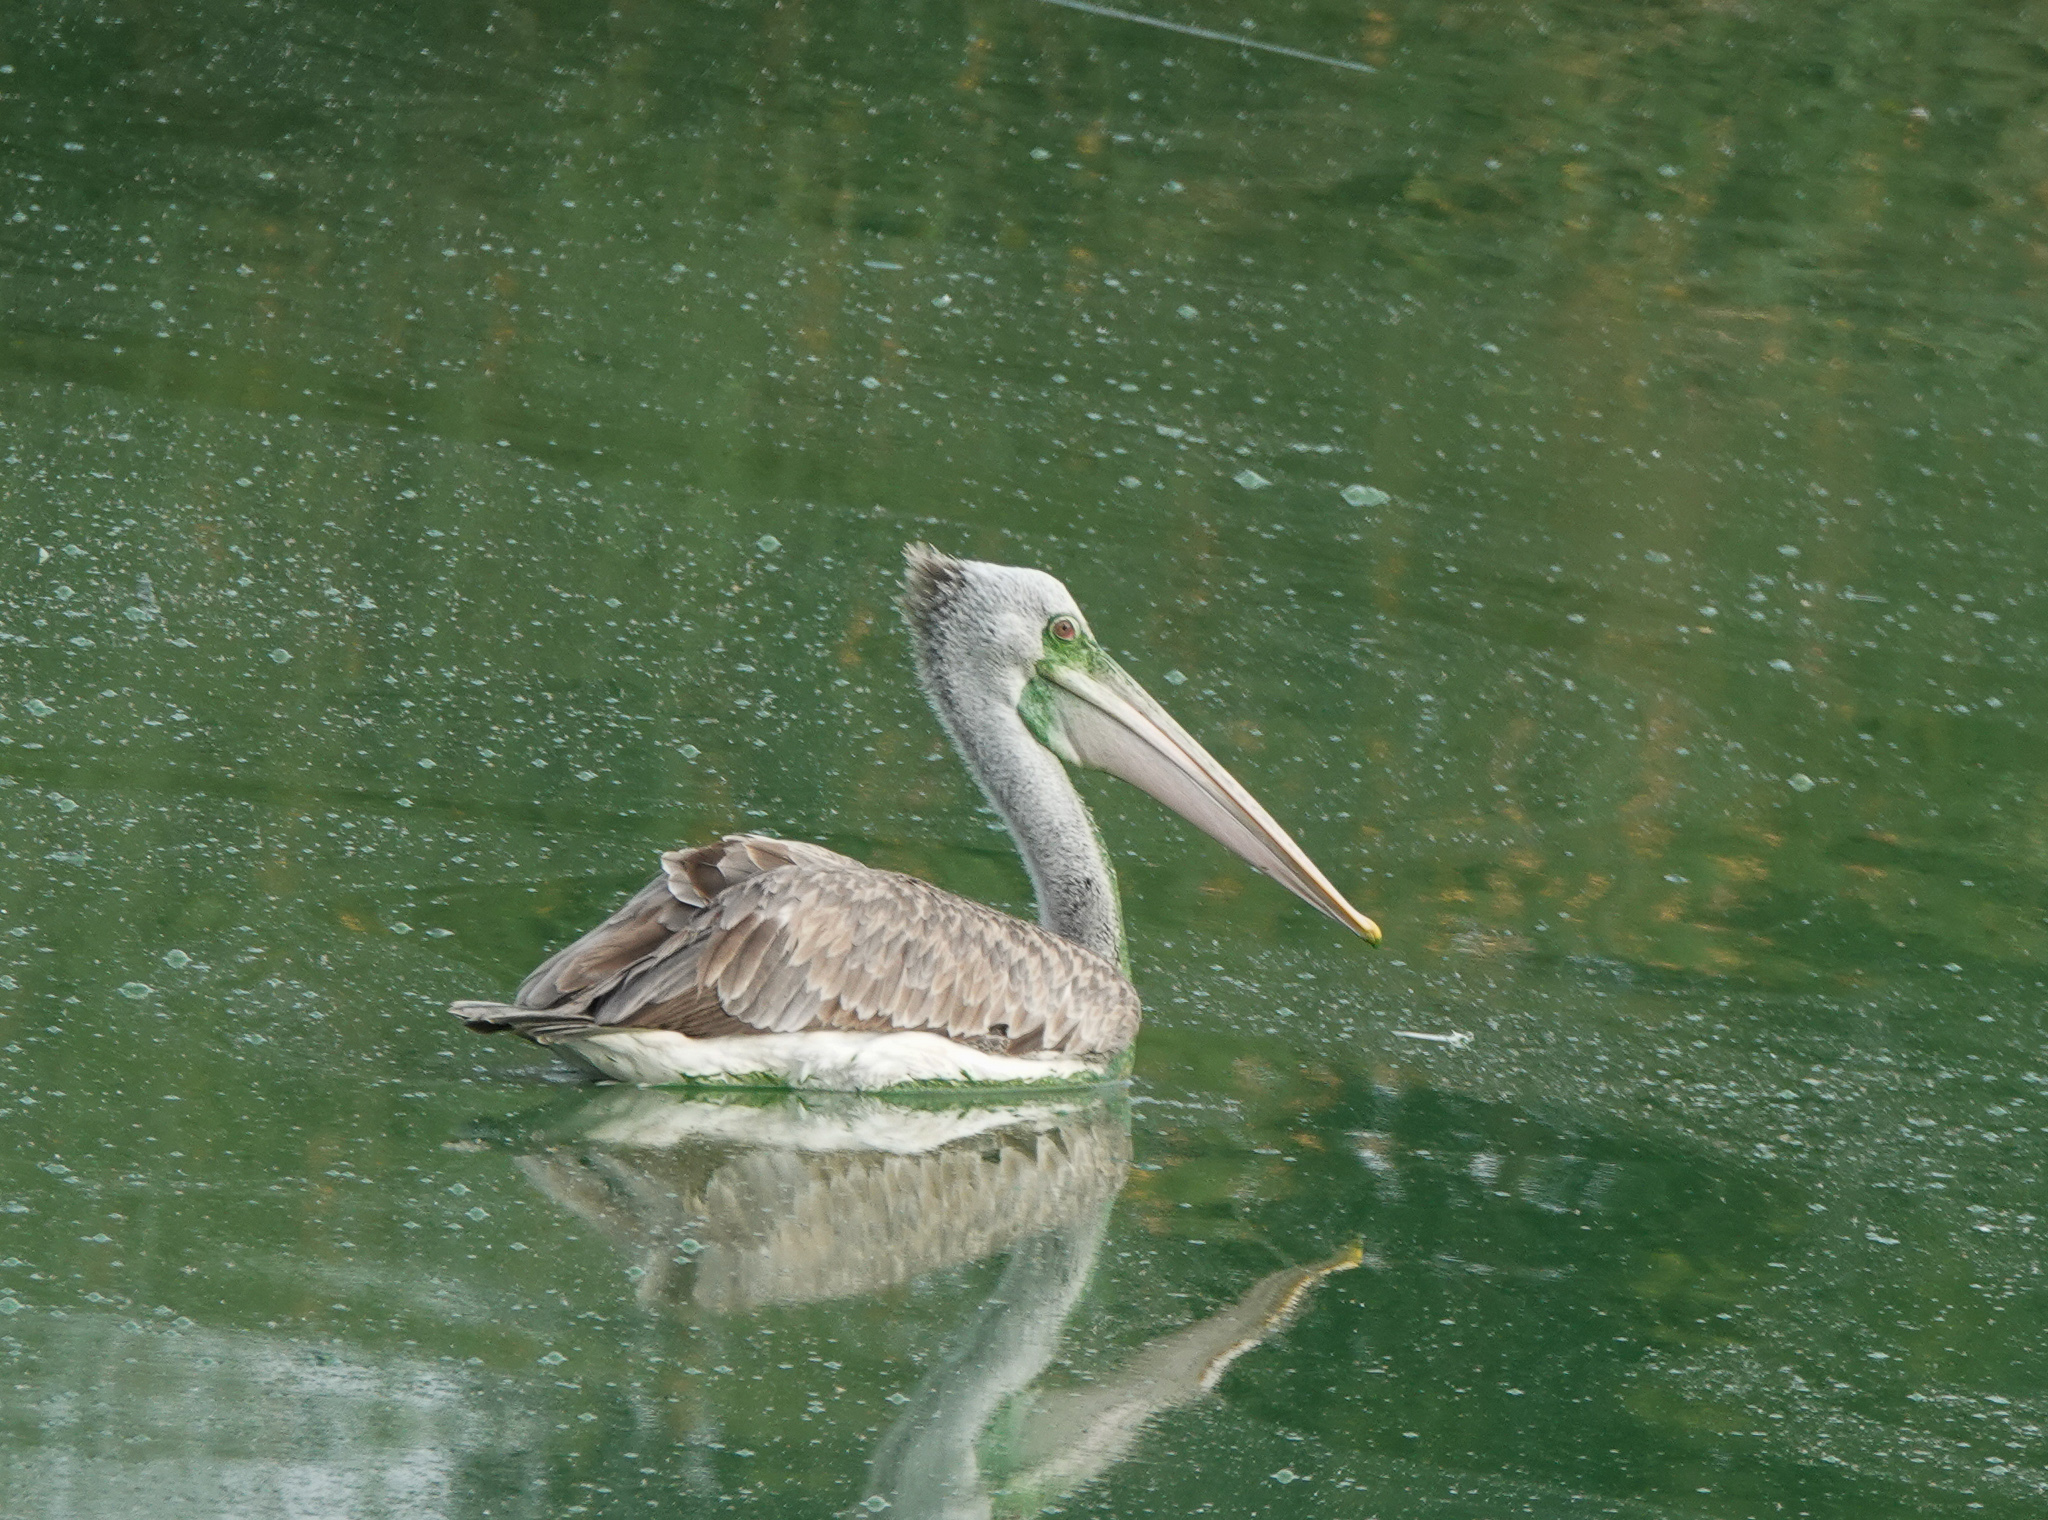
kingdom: Animalia
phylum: Chordata
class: Aves
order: Pelecaniformes
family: Pelecanidae
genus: Pelecanus
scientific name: Pelecanus philippensis
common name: Spot-billed pelican
